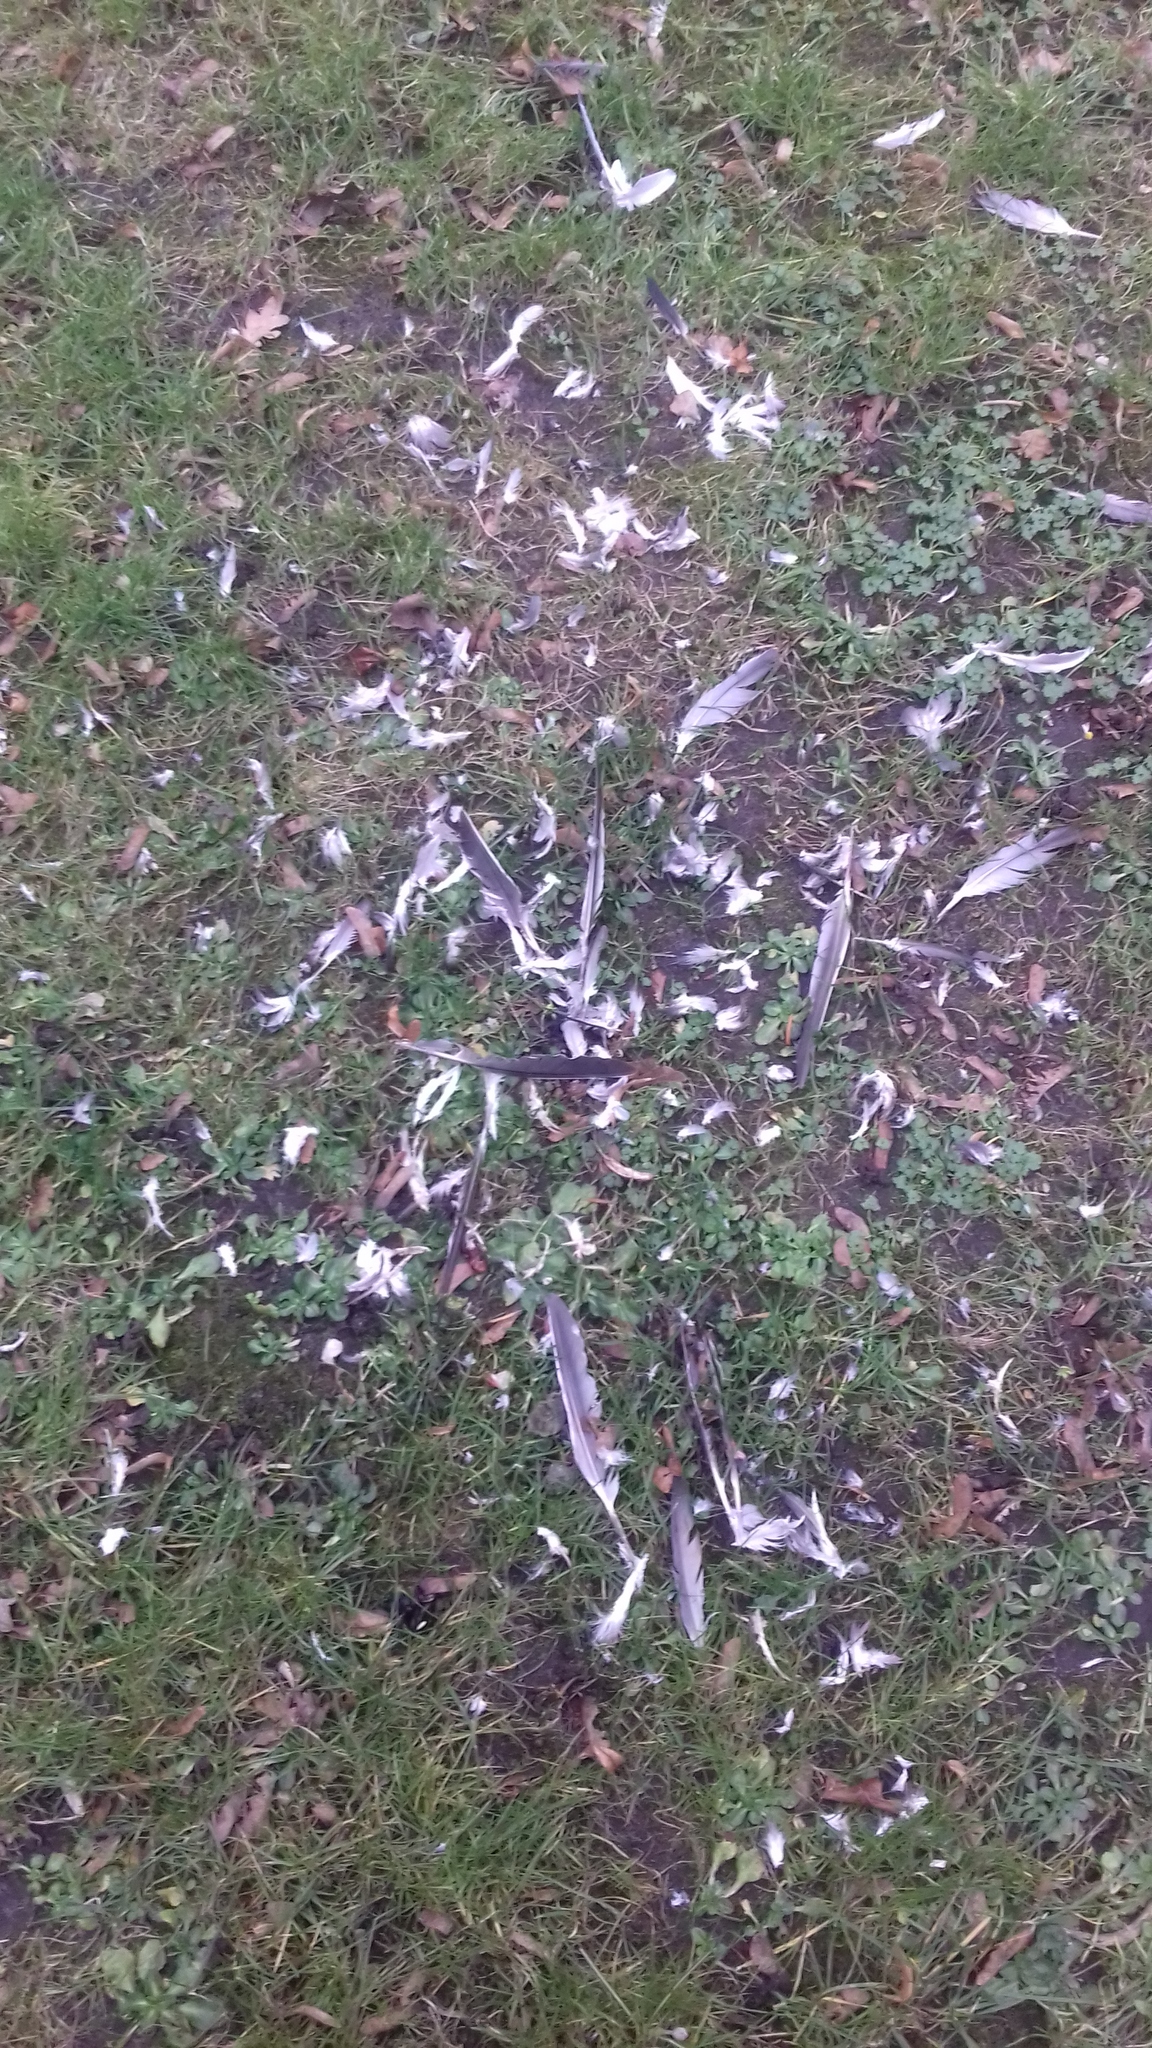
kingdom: Animalia
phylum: Chordata
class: Aves
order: Columbiformes
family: Columbidae
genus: Columba
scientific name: Columba palumbus
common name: Common wood pigeon
